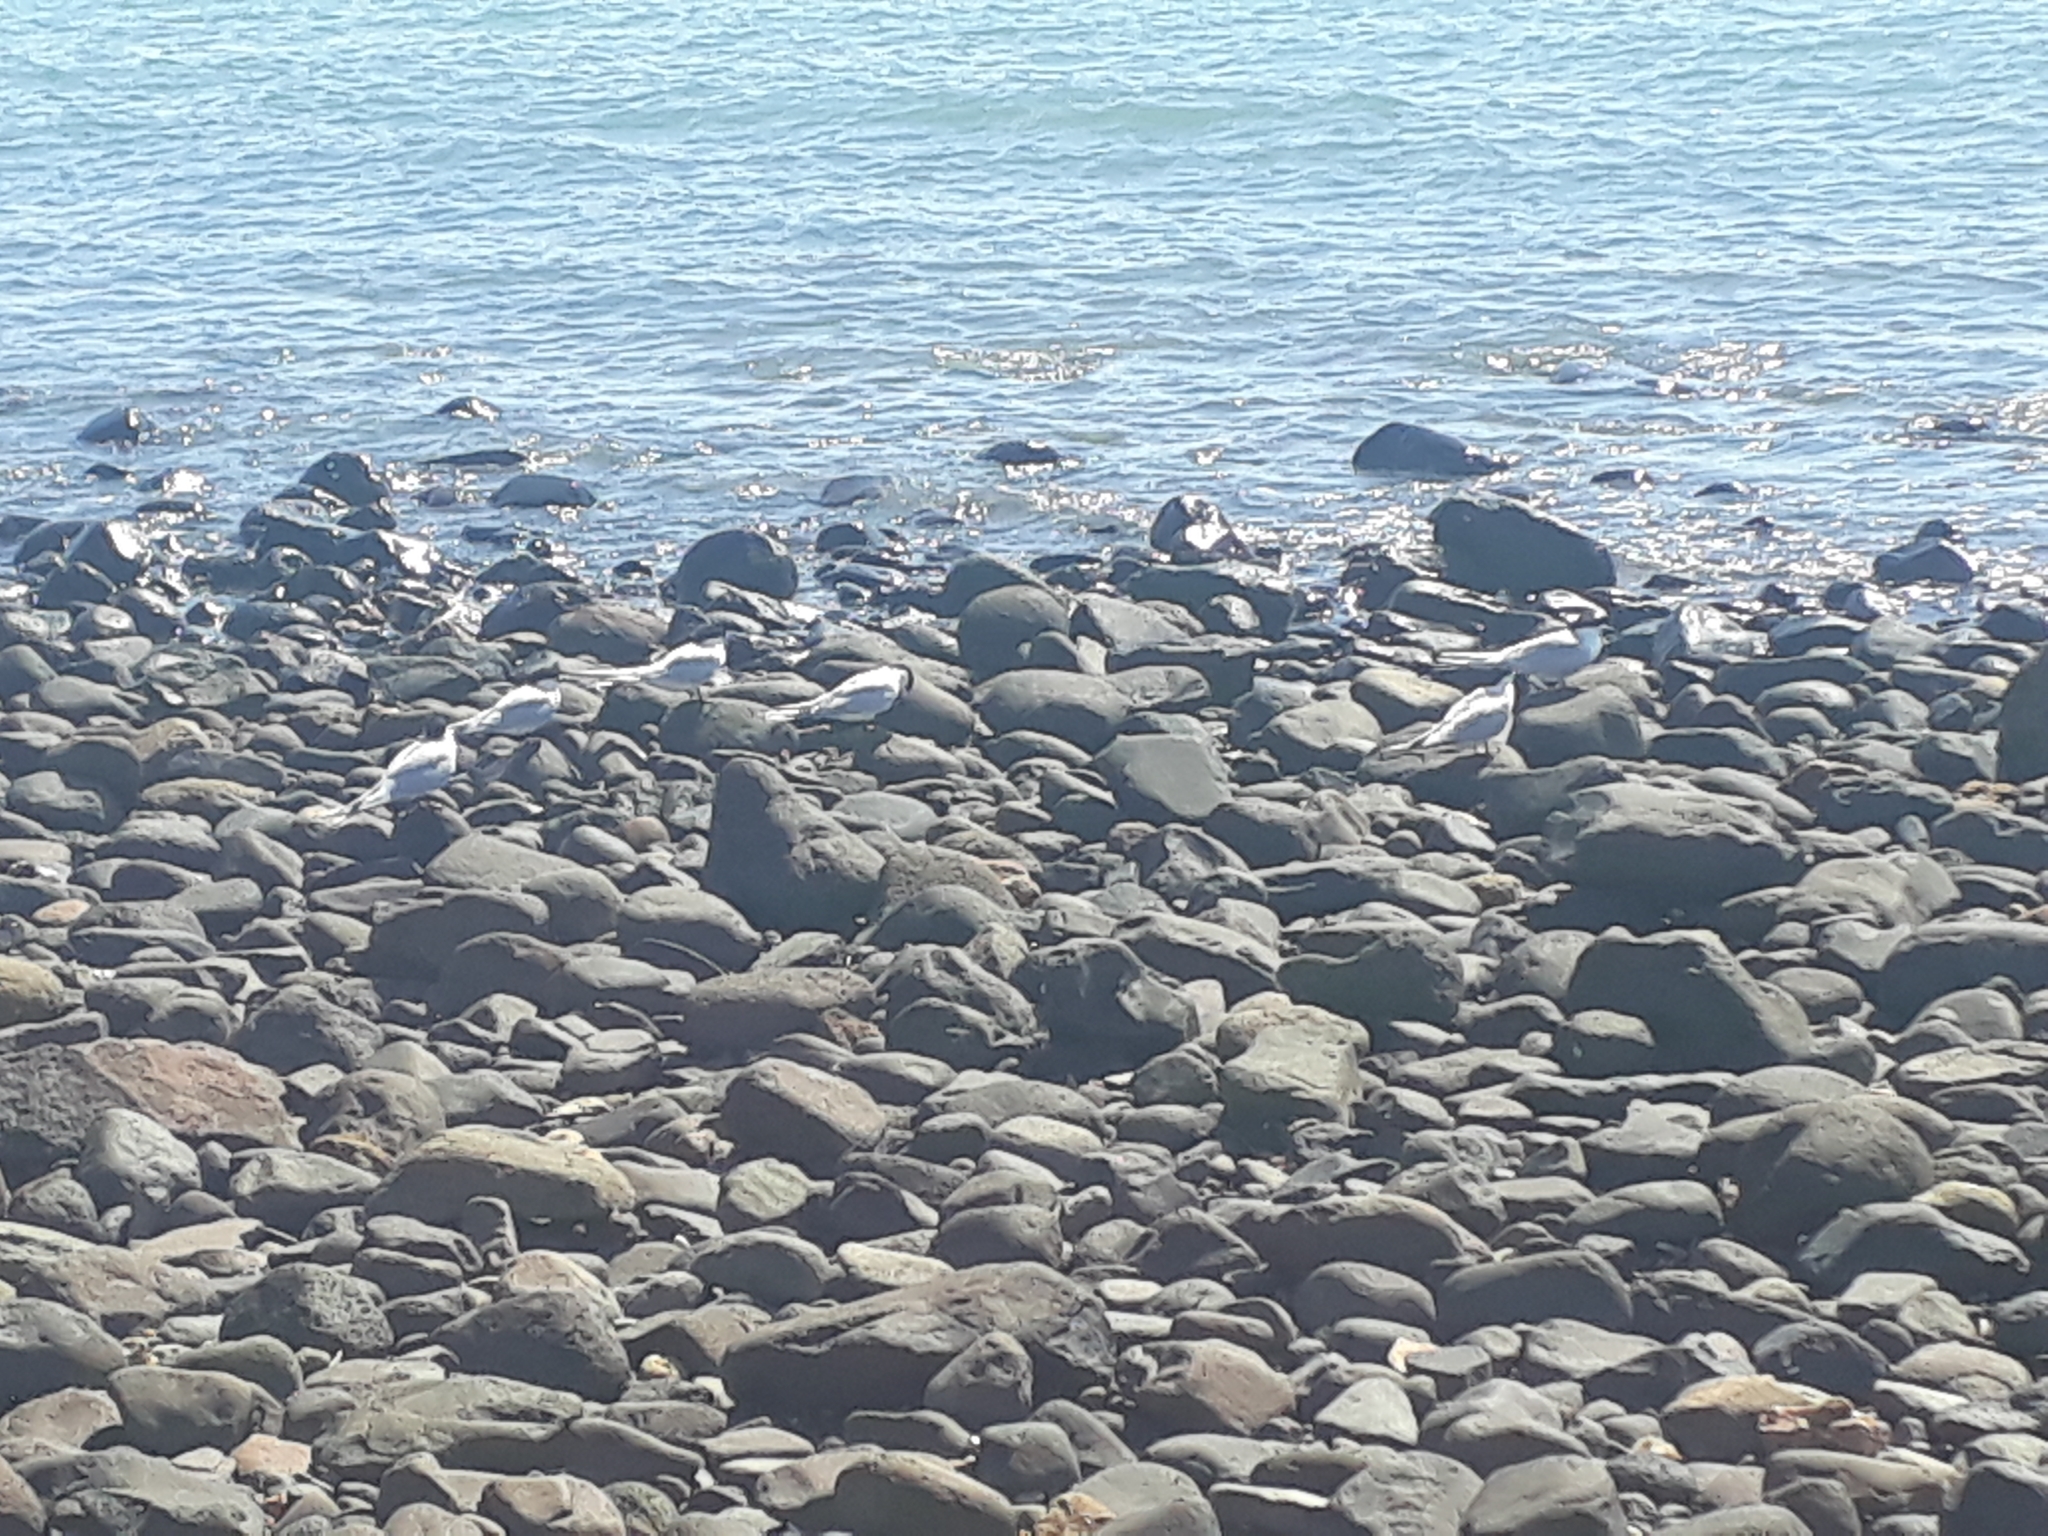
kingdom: Animalia
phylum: Chordata
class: Aves
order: Charadriiformes
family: Laridae
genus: Sterna
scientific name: Sterna striata
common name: White-fronted tern
